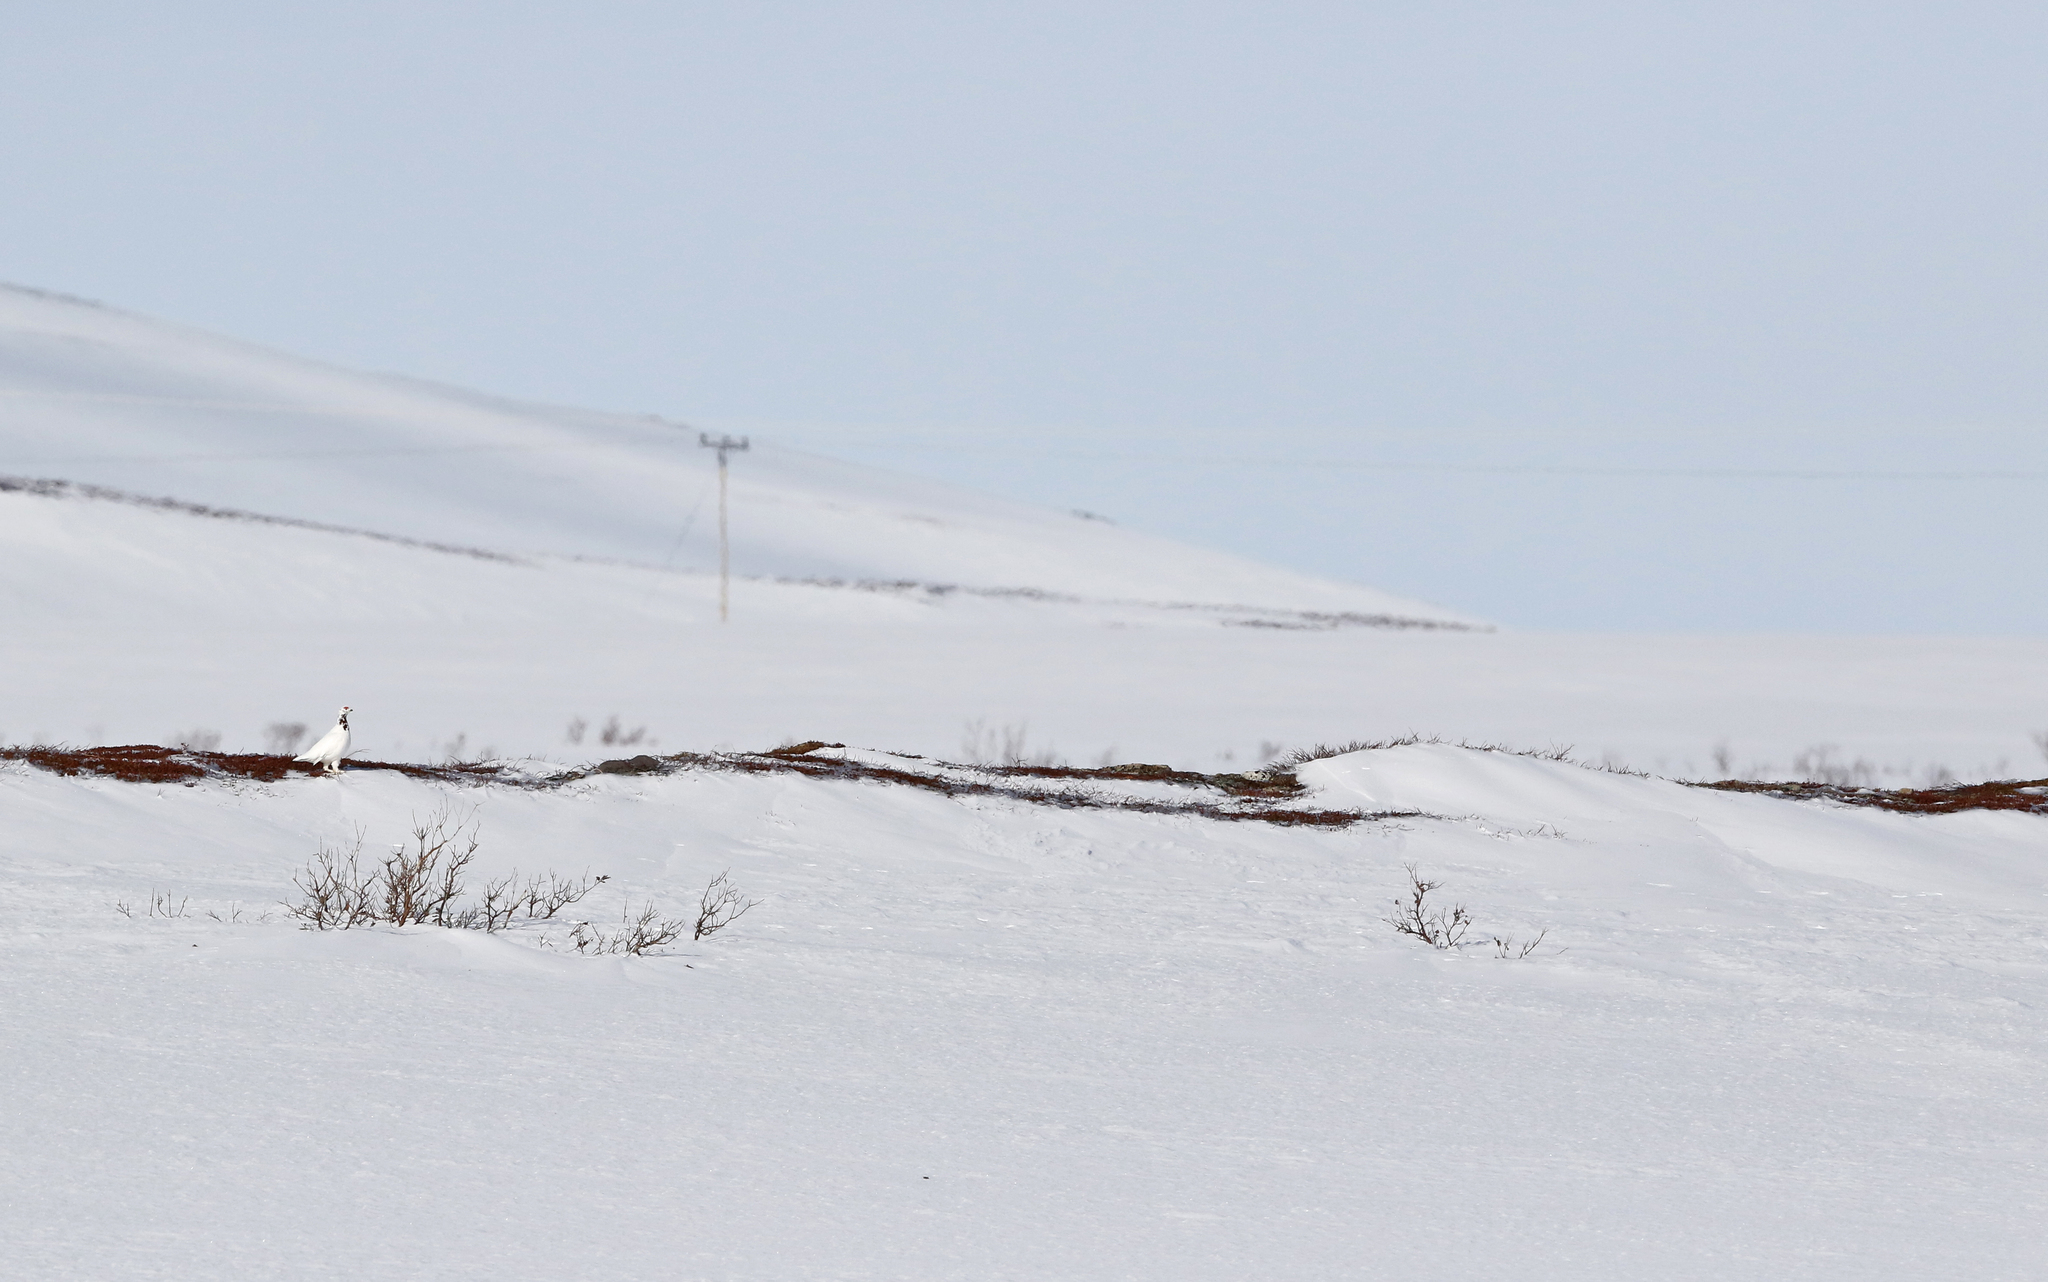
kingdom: Animalia
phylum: Chordata
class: Aves
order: Galliformes
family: Phasianidae
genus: Lagopus
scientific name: Lagopus lagopus
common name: Willow ptarmigan
